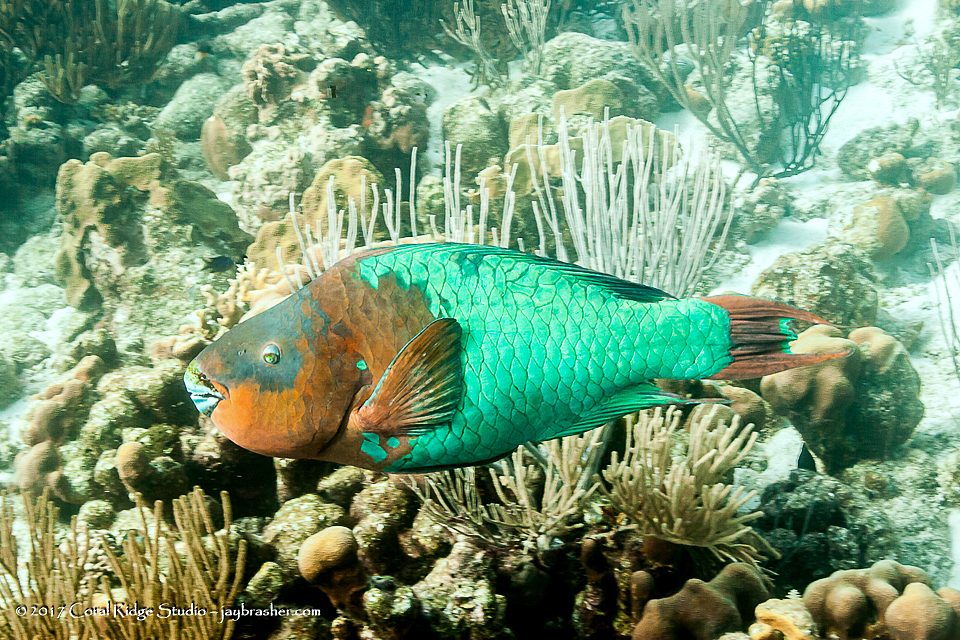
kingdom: Animalia
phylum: Chordata
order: Perciformes
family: Scaridae
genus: Scarus
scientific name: Scarus guacamaia
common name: Rainbow parrotfish
